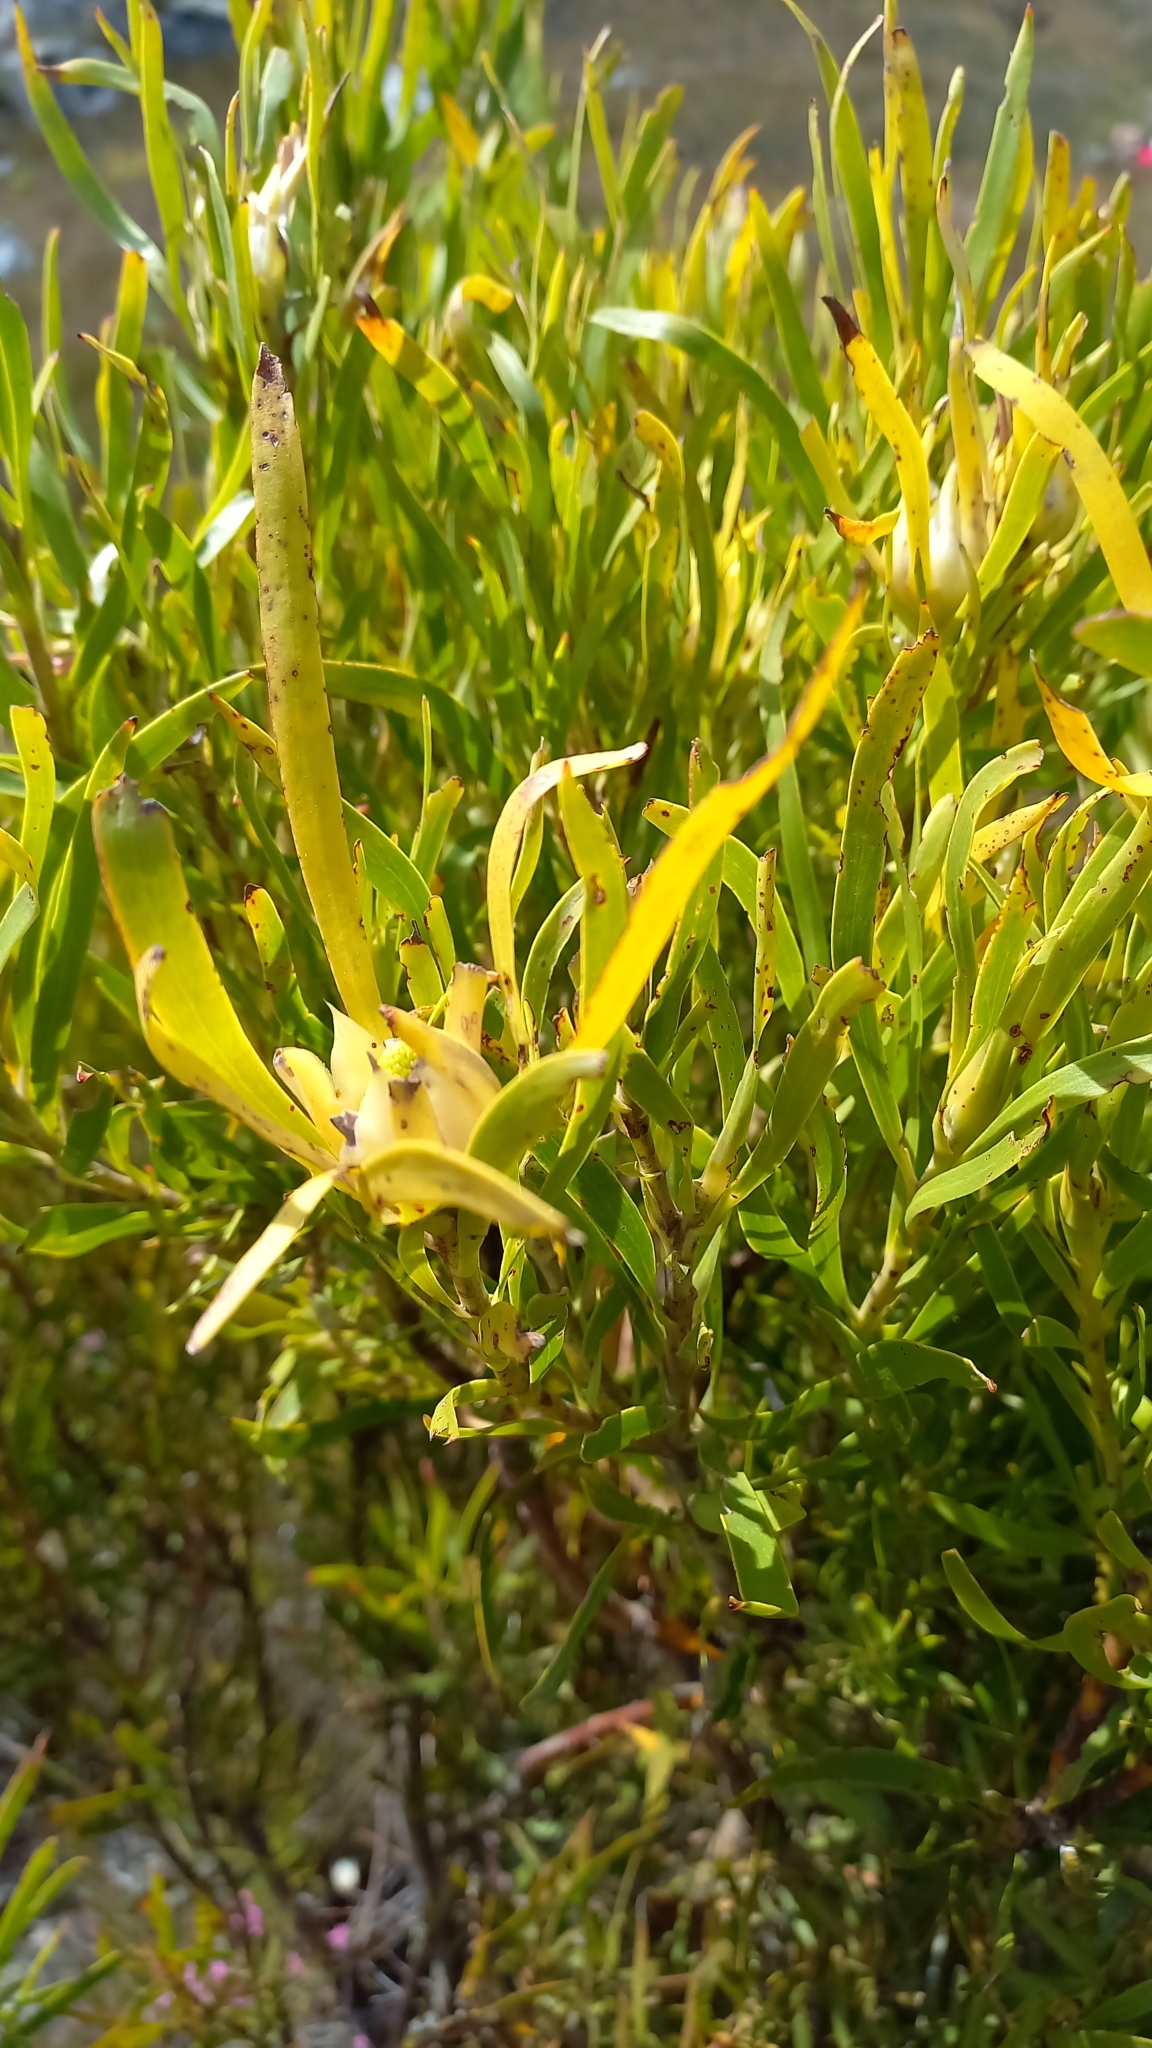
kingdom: Plantae
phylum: Tracheophyta
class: Magnoliopsida
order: Proteales
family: Proteaceae
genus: Leucadendron
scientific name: Leucadendron eucalyptifolium
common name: Gum-leaved conebush
